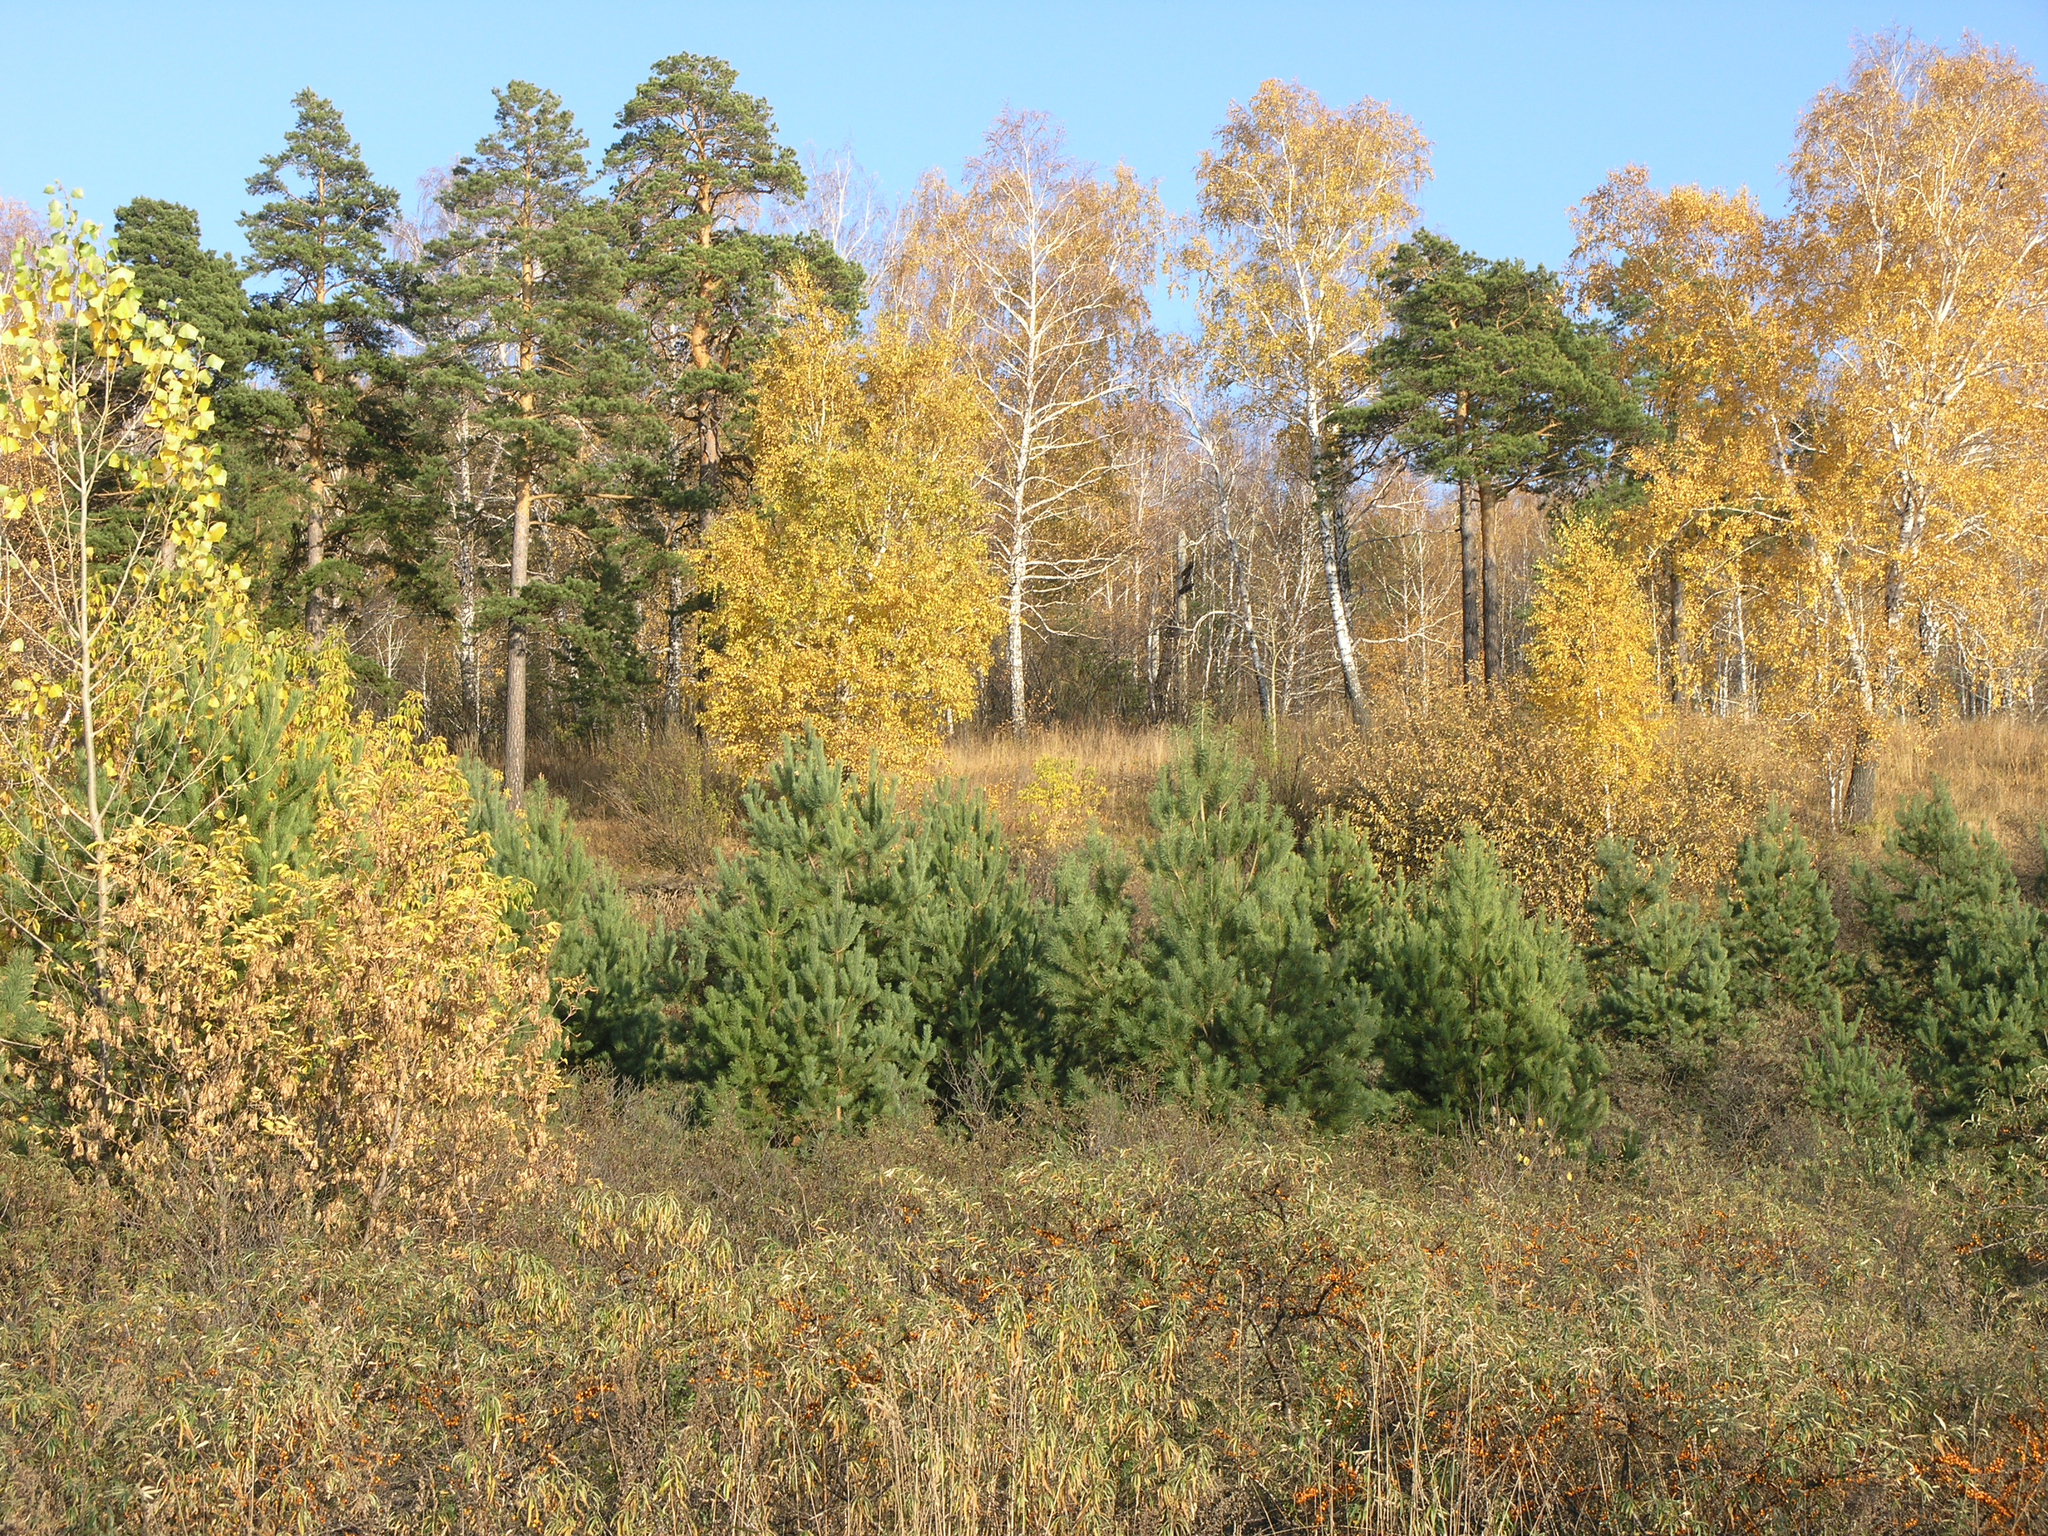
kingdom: Plantae
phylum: Tracheophyta
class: Magnoliopsida
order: Rosales
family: Elaeagnaceae
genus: Hippophae
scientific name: Hippophae rhamnoides
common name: Sea-buckthorn
